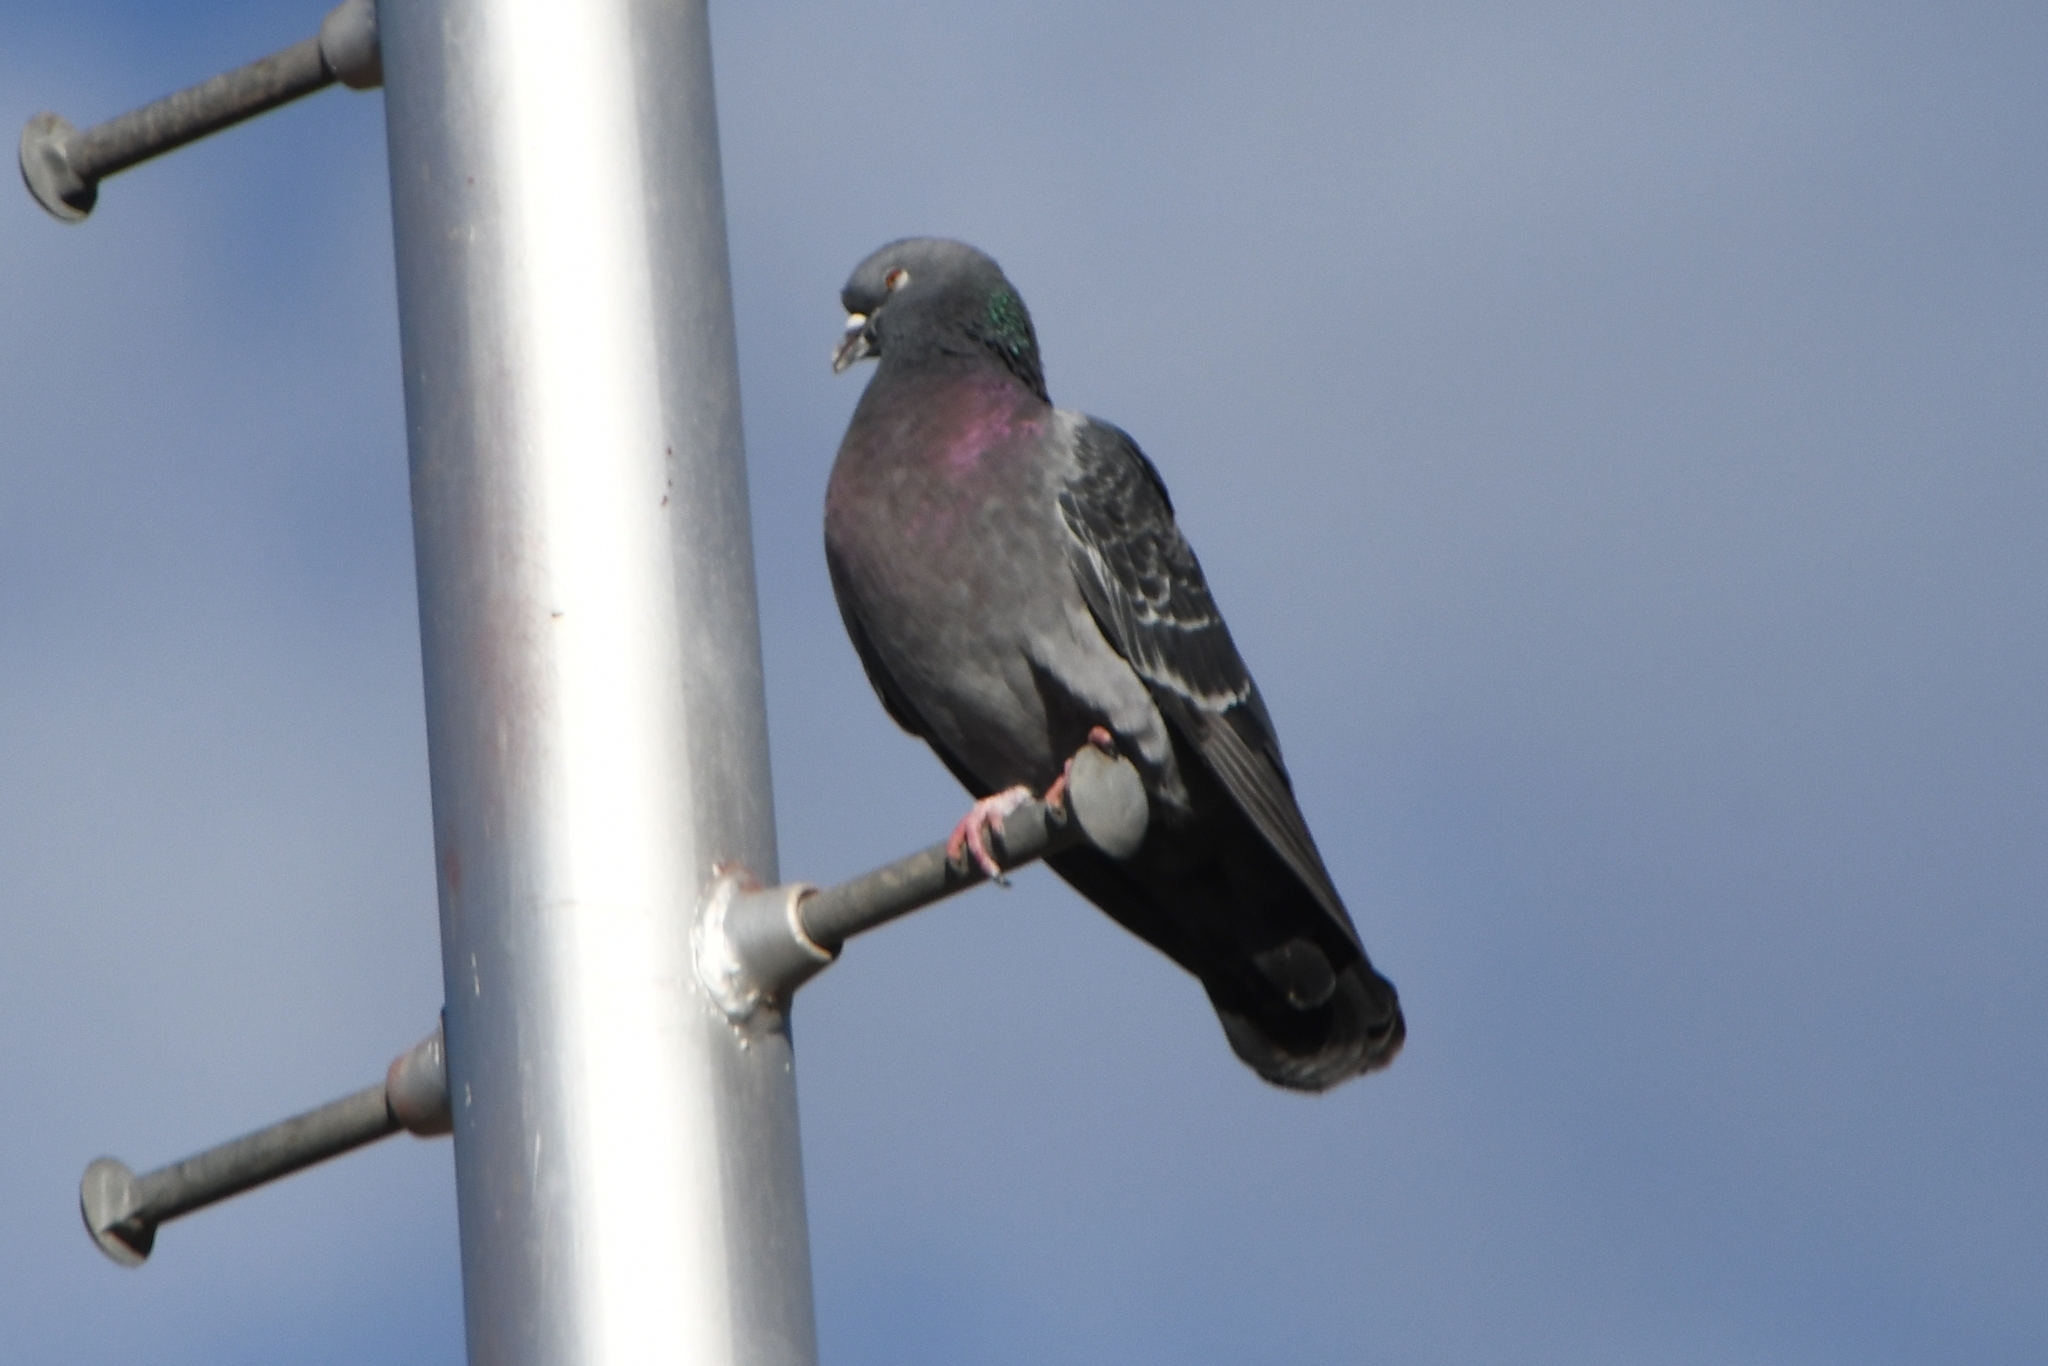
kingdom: Animalia
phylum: Chordata
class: Aves
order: Columbiformes
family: Columbidae
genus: Columba
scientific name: Columba livia
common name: Rock pigeon
